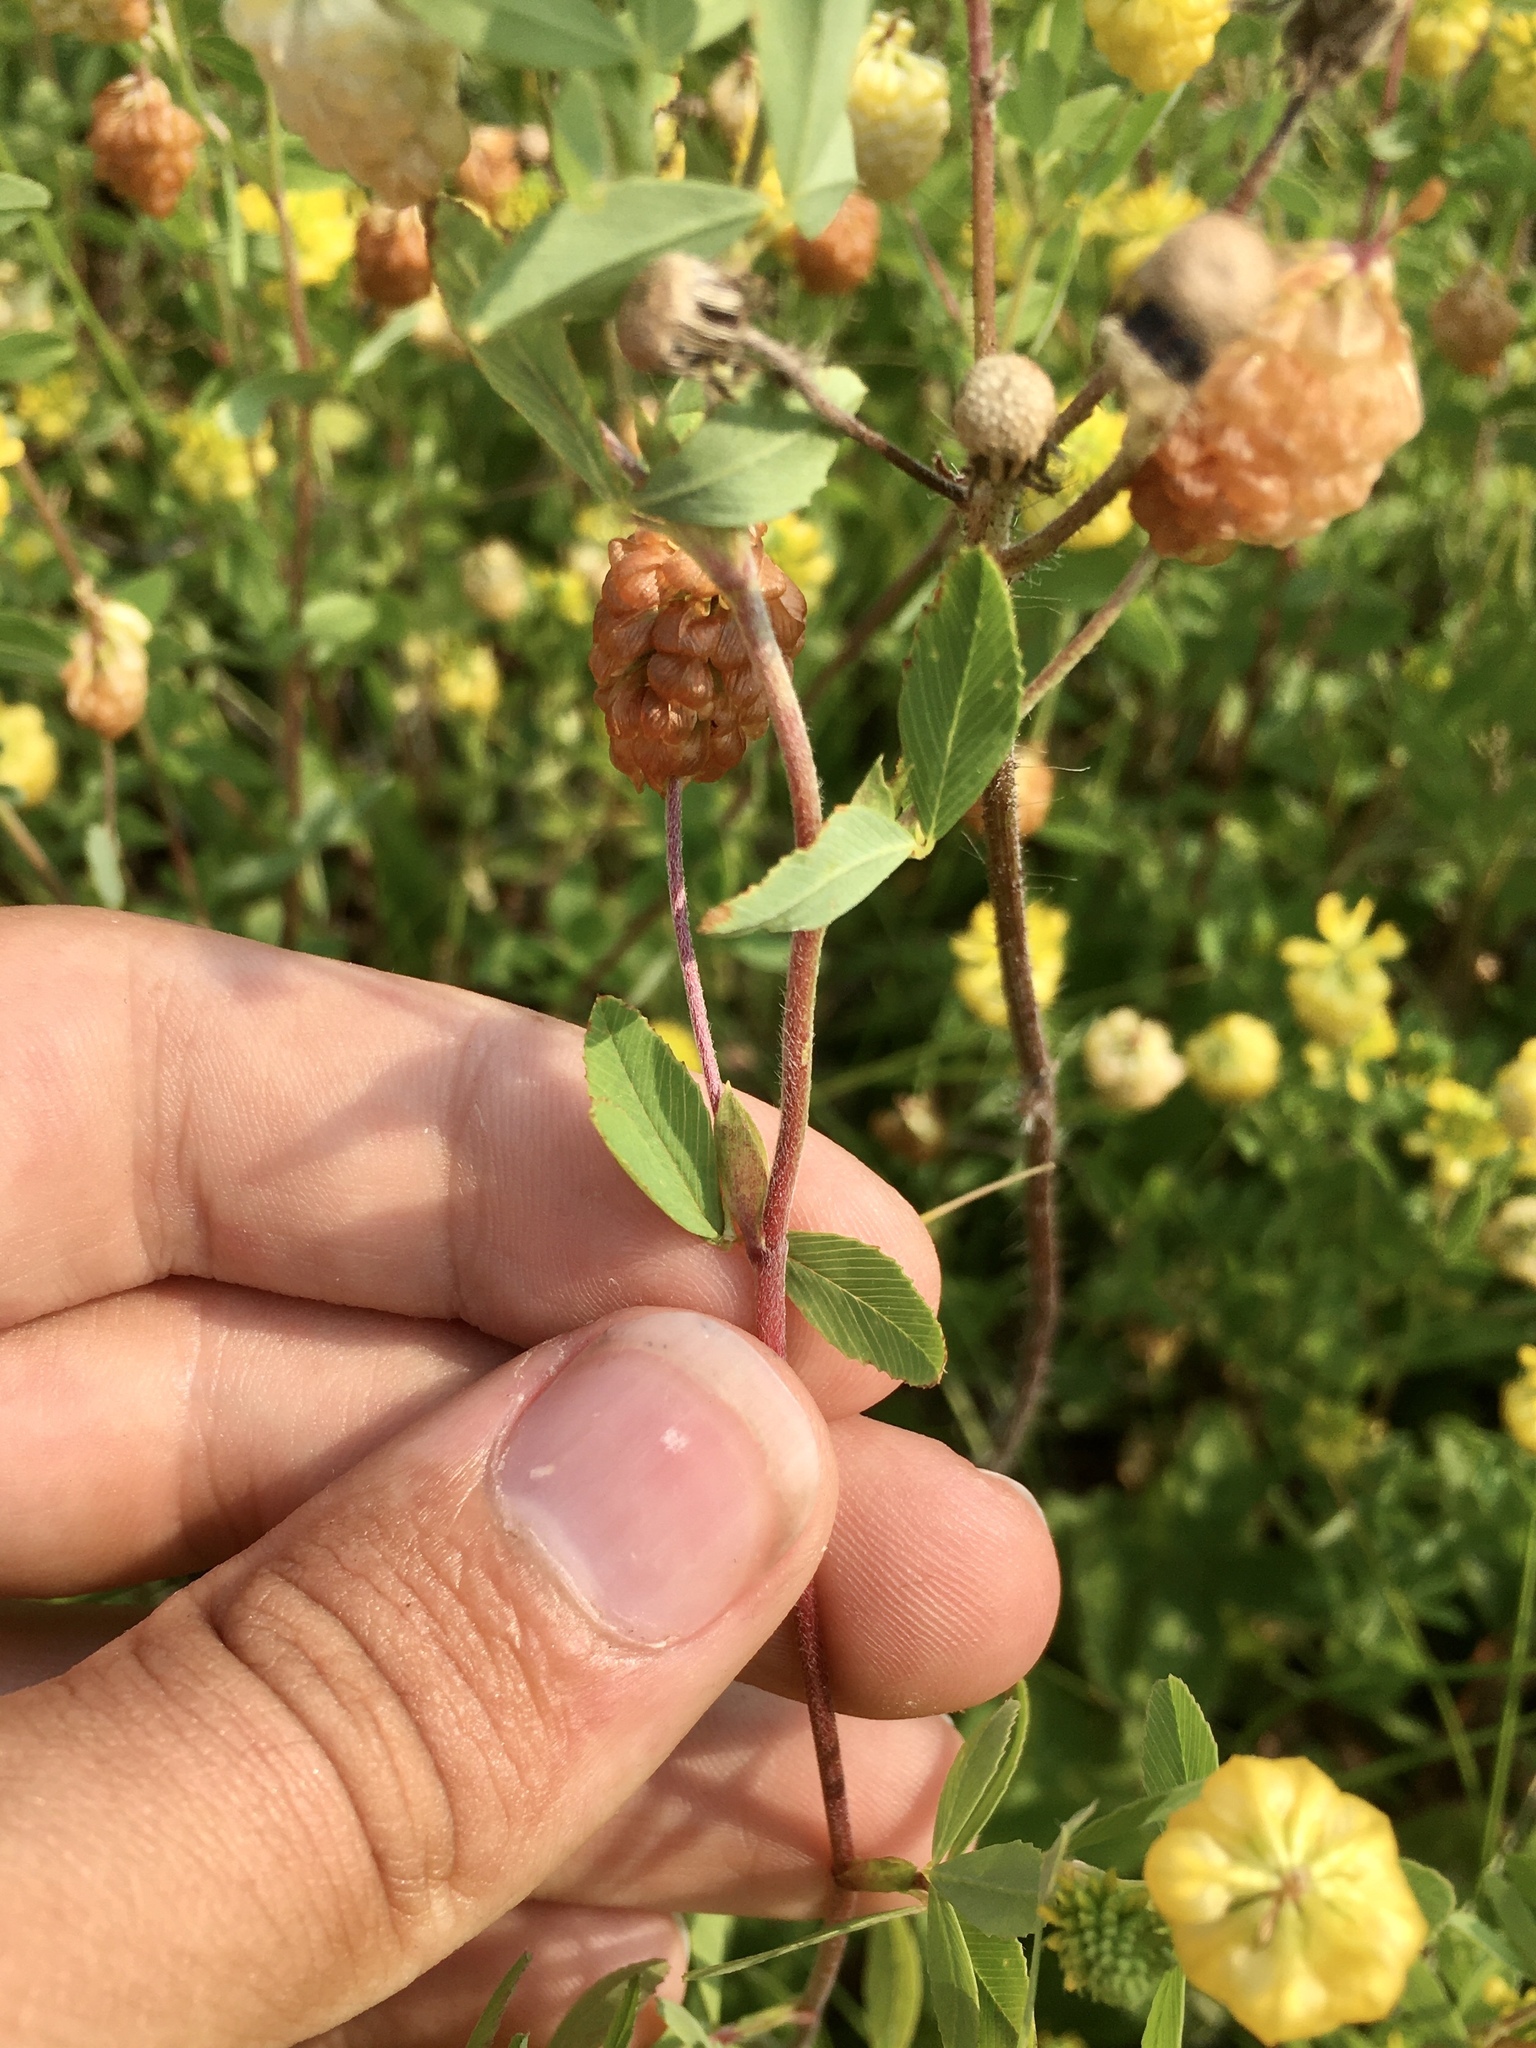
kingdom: Plantae
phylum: Tracheophyta
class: Magnoliopsida
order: Fabales
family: Fabaceae
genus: Trifolium
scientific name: Trifolium aureum
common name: Golden clover
